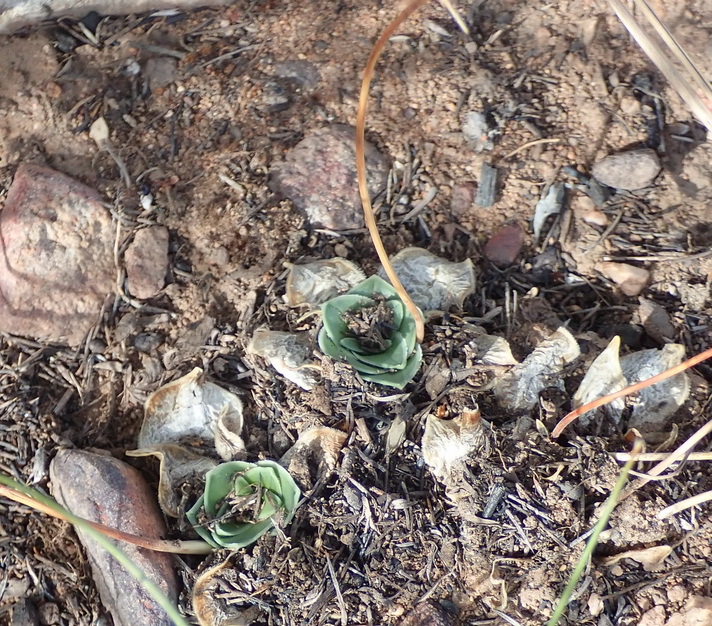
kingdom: Plantae
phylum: Tracheophyta
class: Liliopsida
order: Asparagales
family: Asparagaceae
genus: Drimia
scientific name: Drimia ciliata
